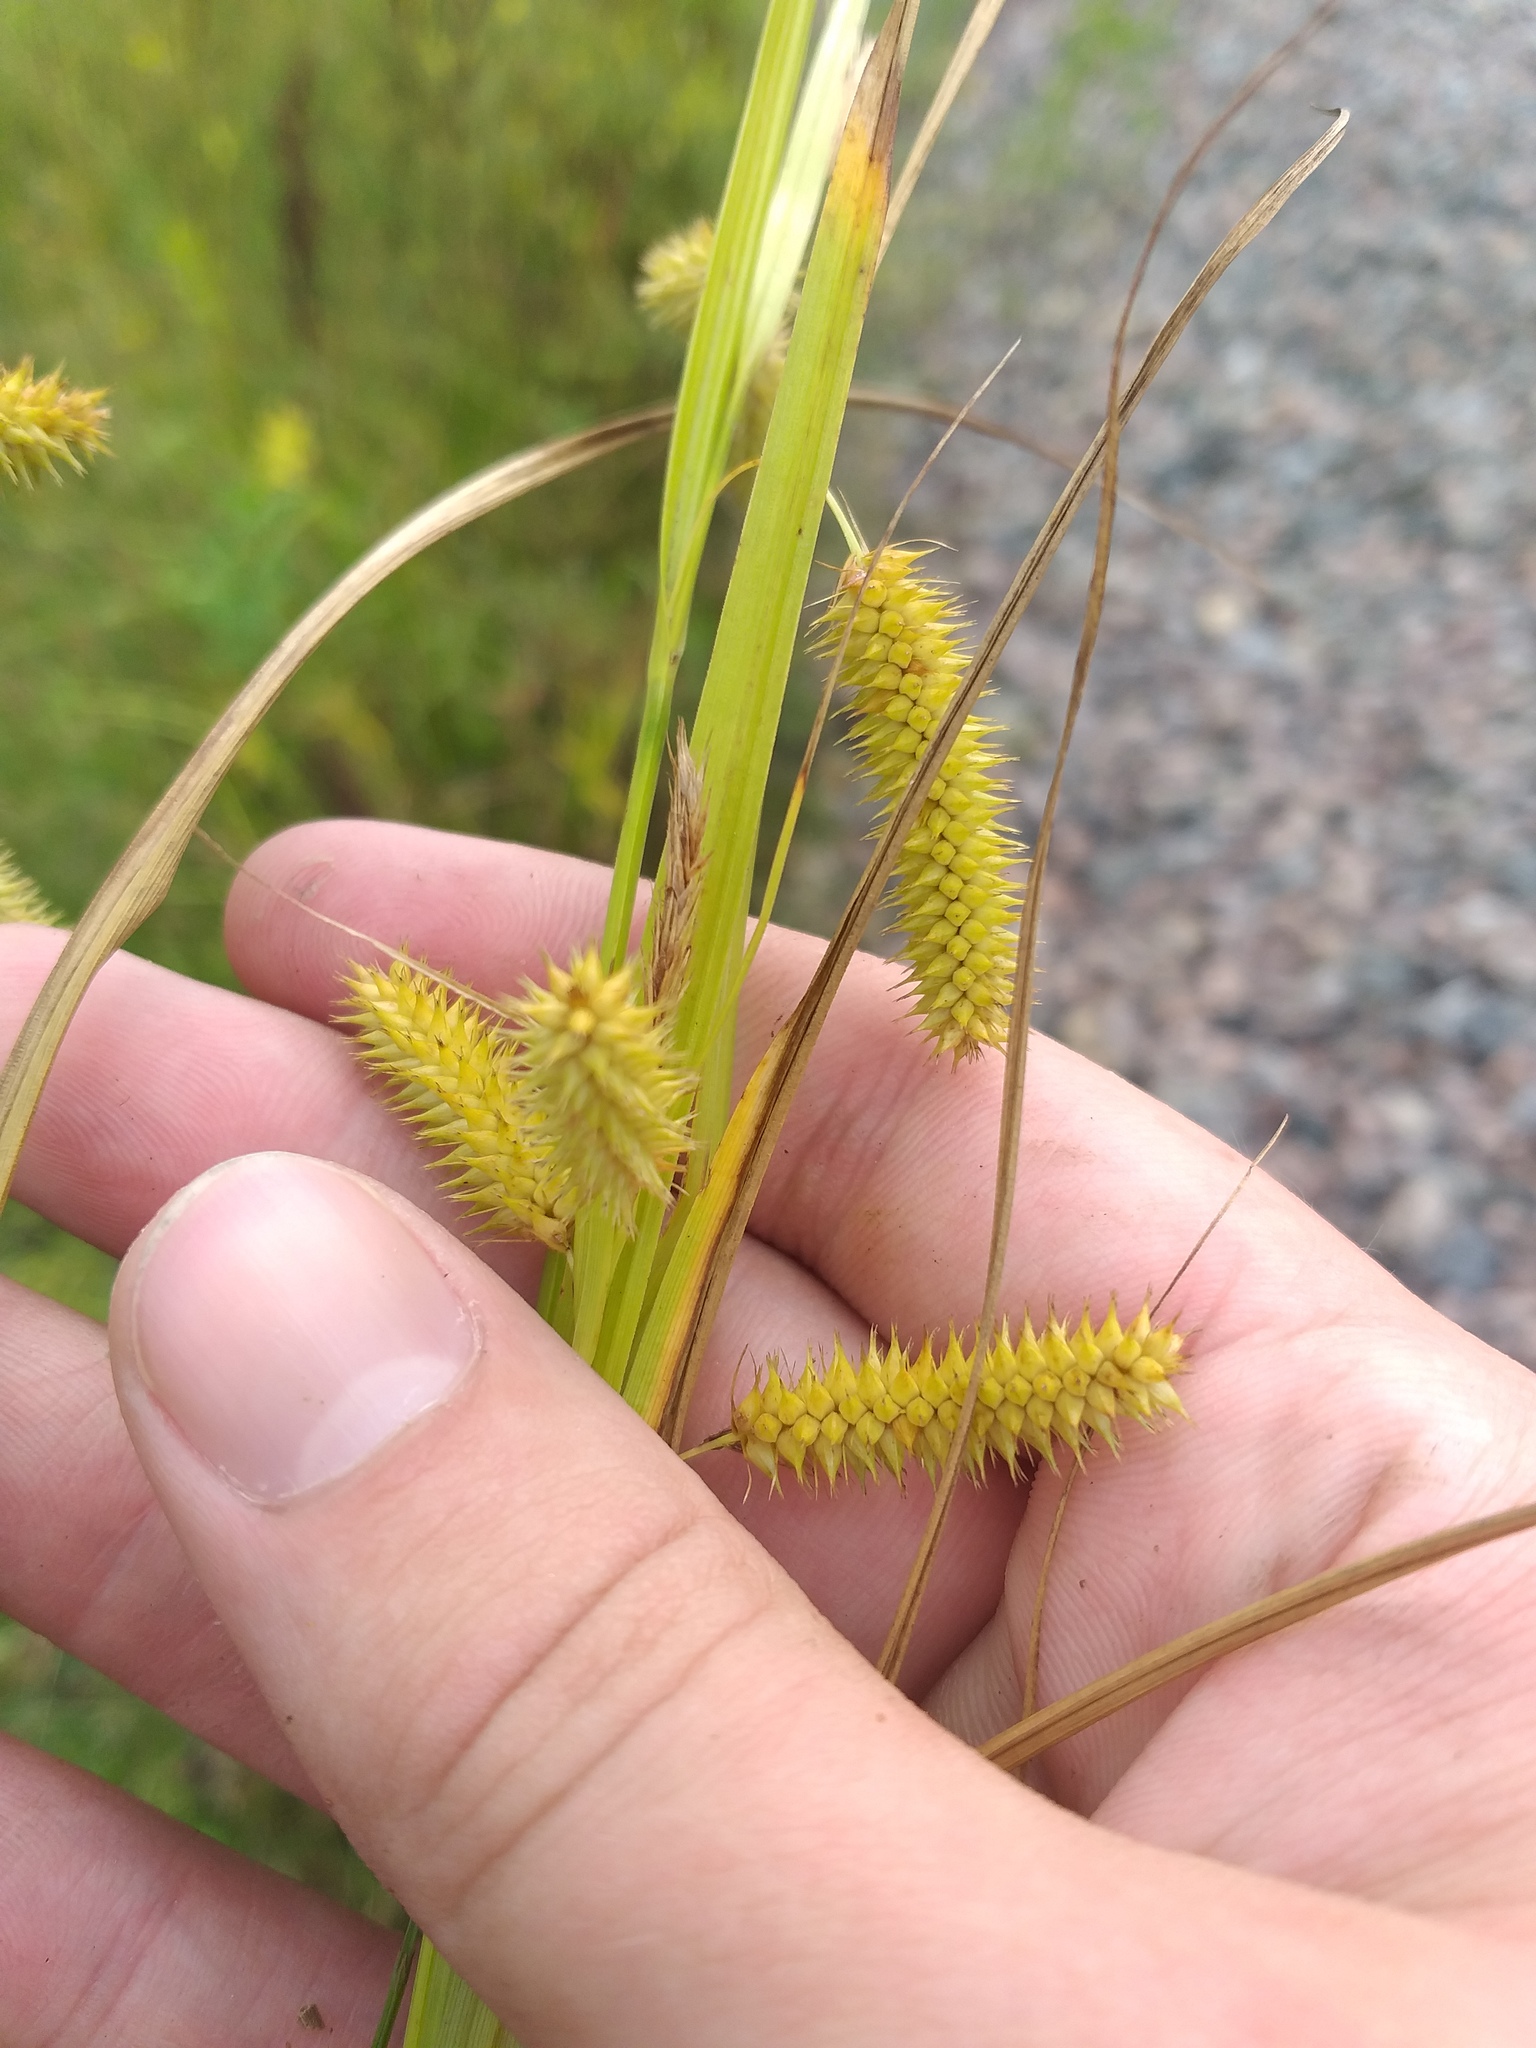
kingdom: Plantae
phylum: Tracheophyta
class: Liliopsida
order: Poales
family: Cyperaceae
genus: Carex
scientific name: Carex pseudocyperus
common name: Cyperus sedge
